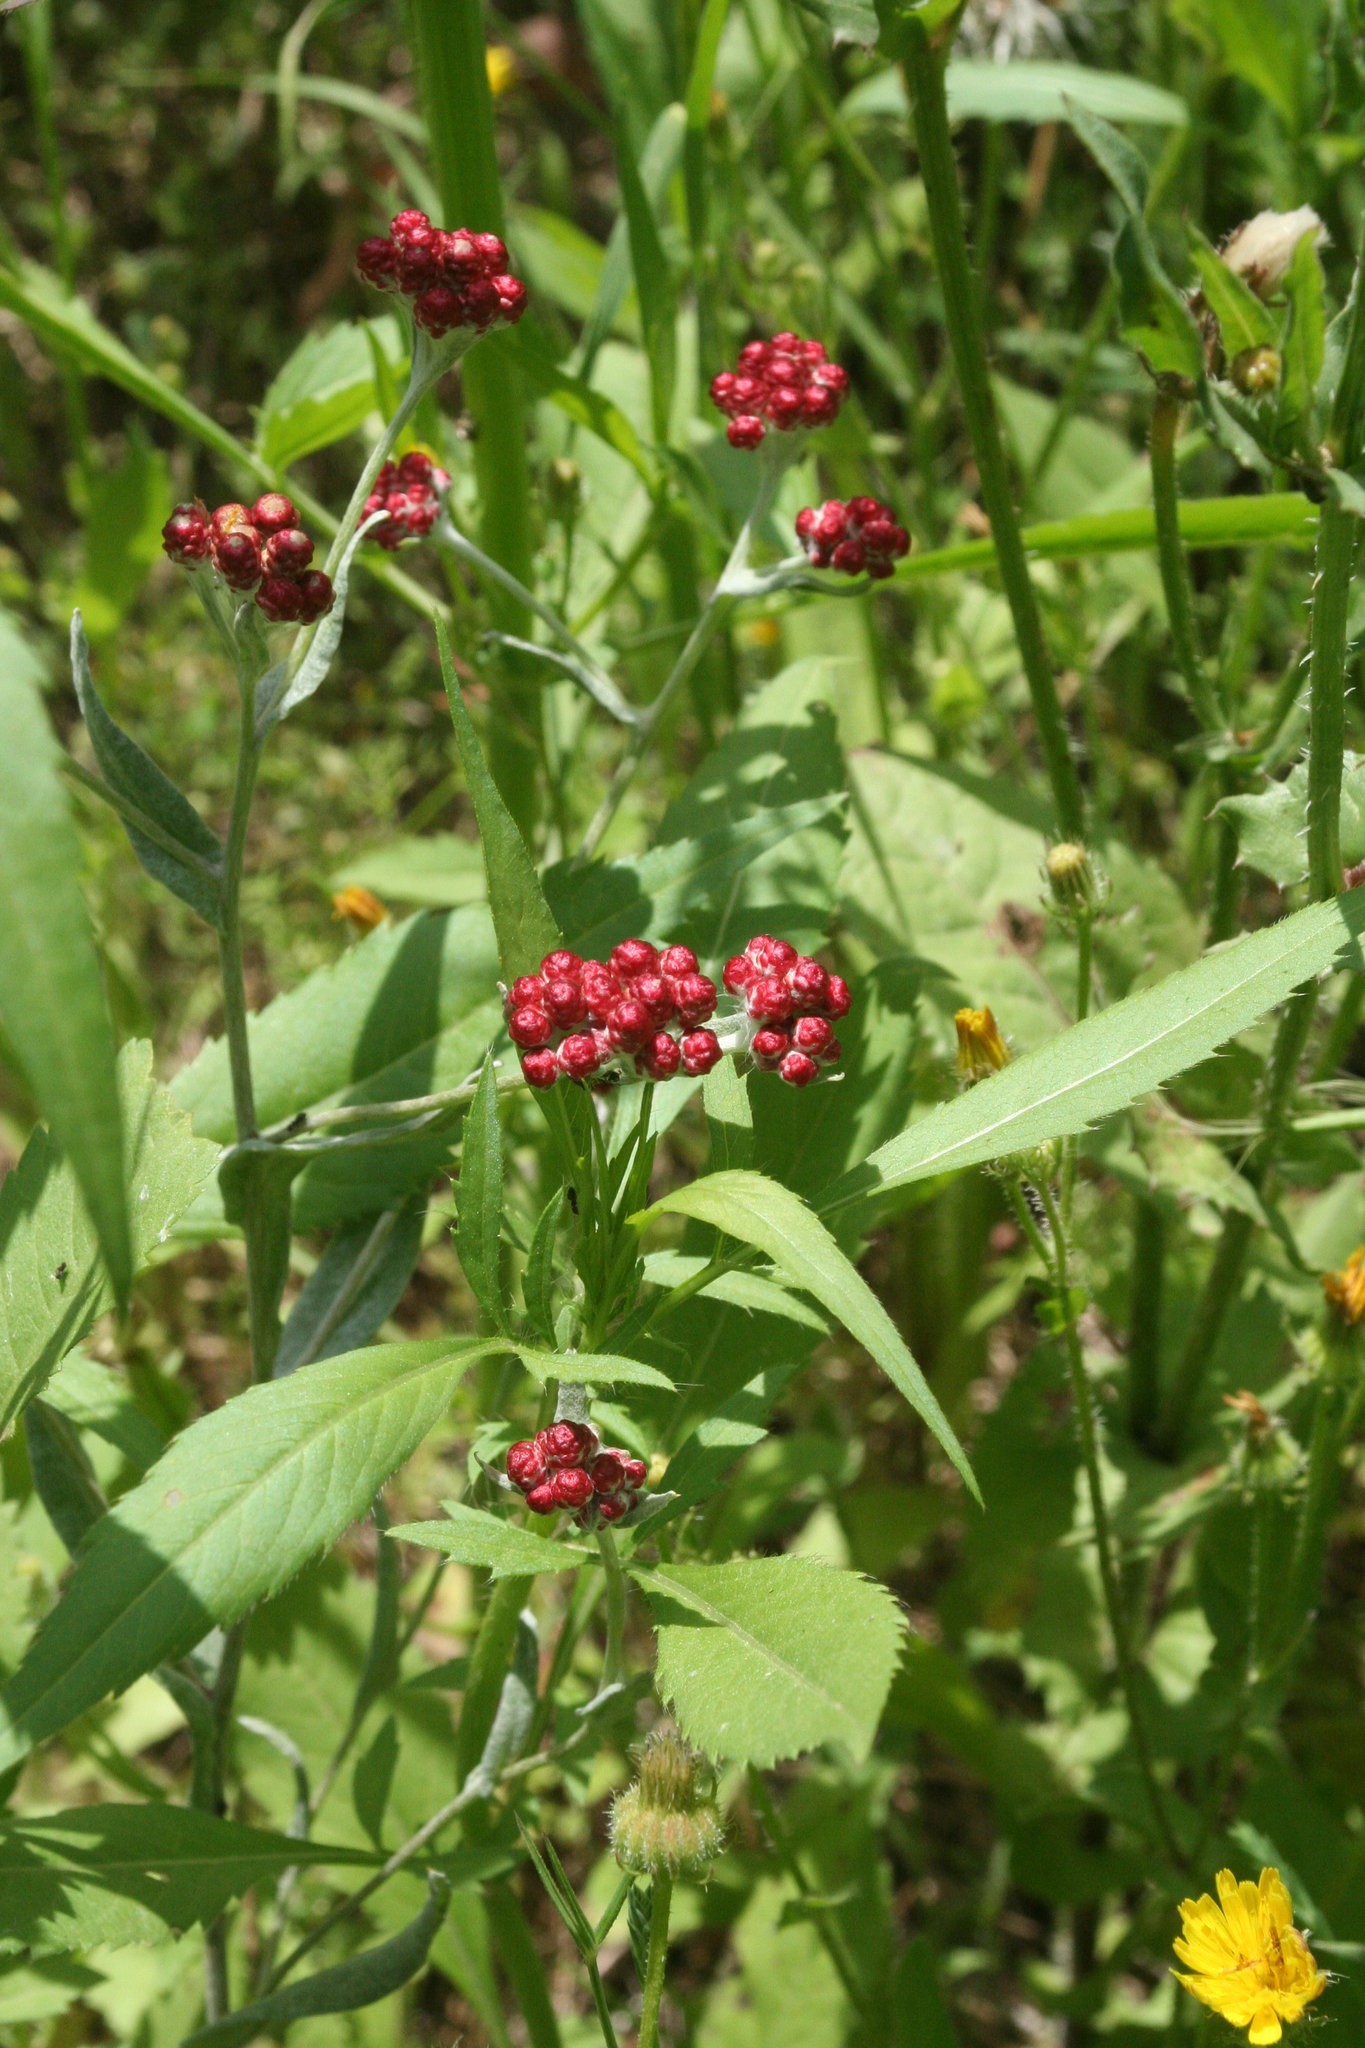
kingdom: Plantae
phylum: Tracheophyta
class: Magnoliopsida
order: Asterales
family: Asteraceae
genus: Helichrysum
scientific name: Helichrysum sanguineum
